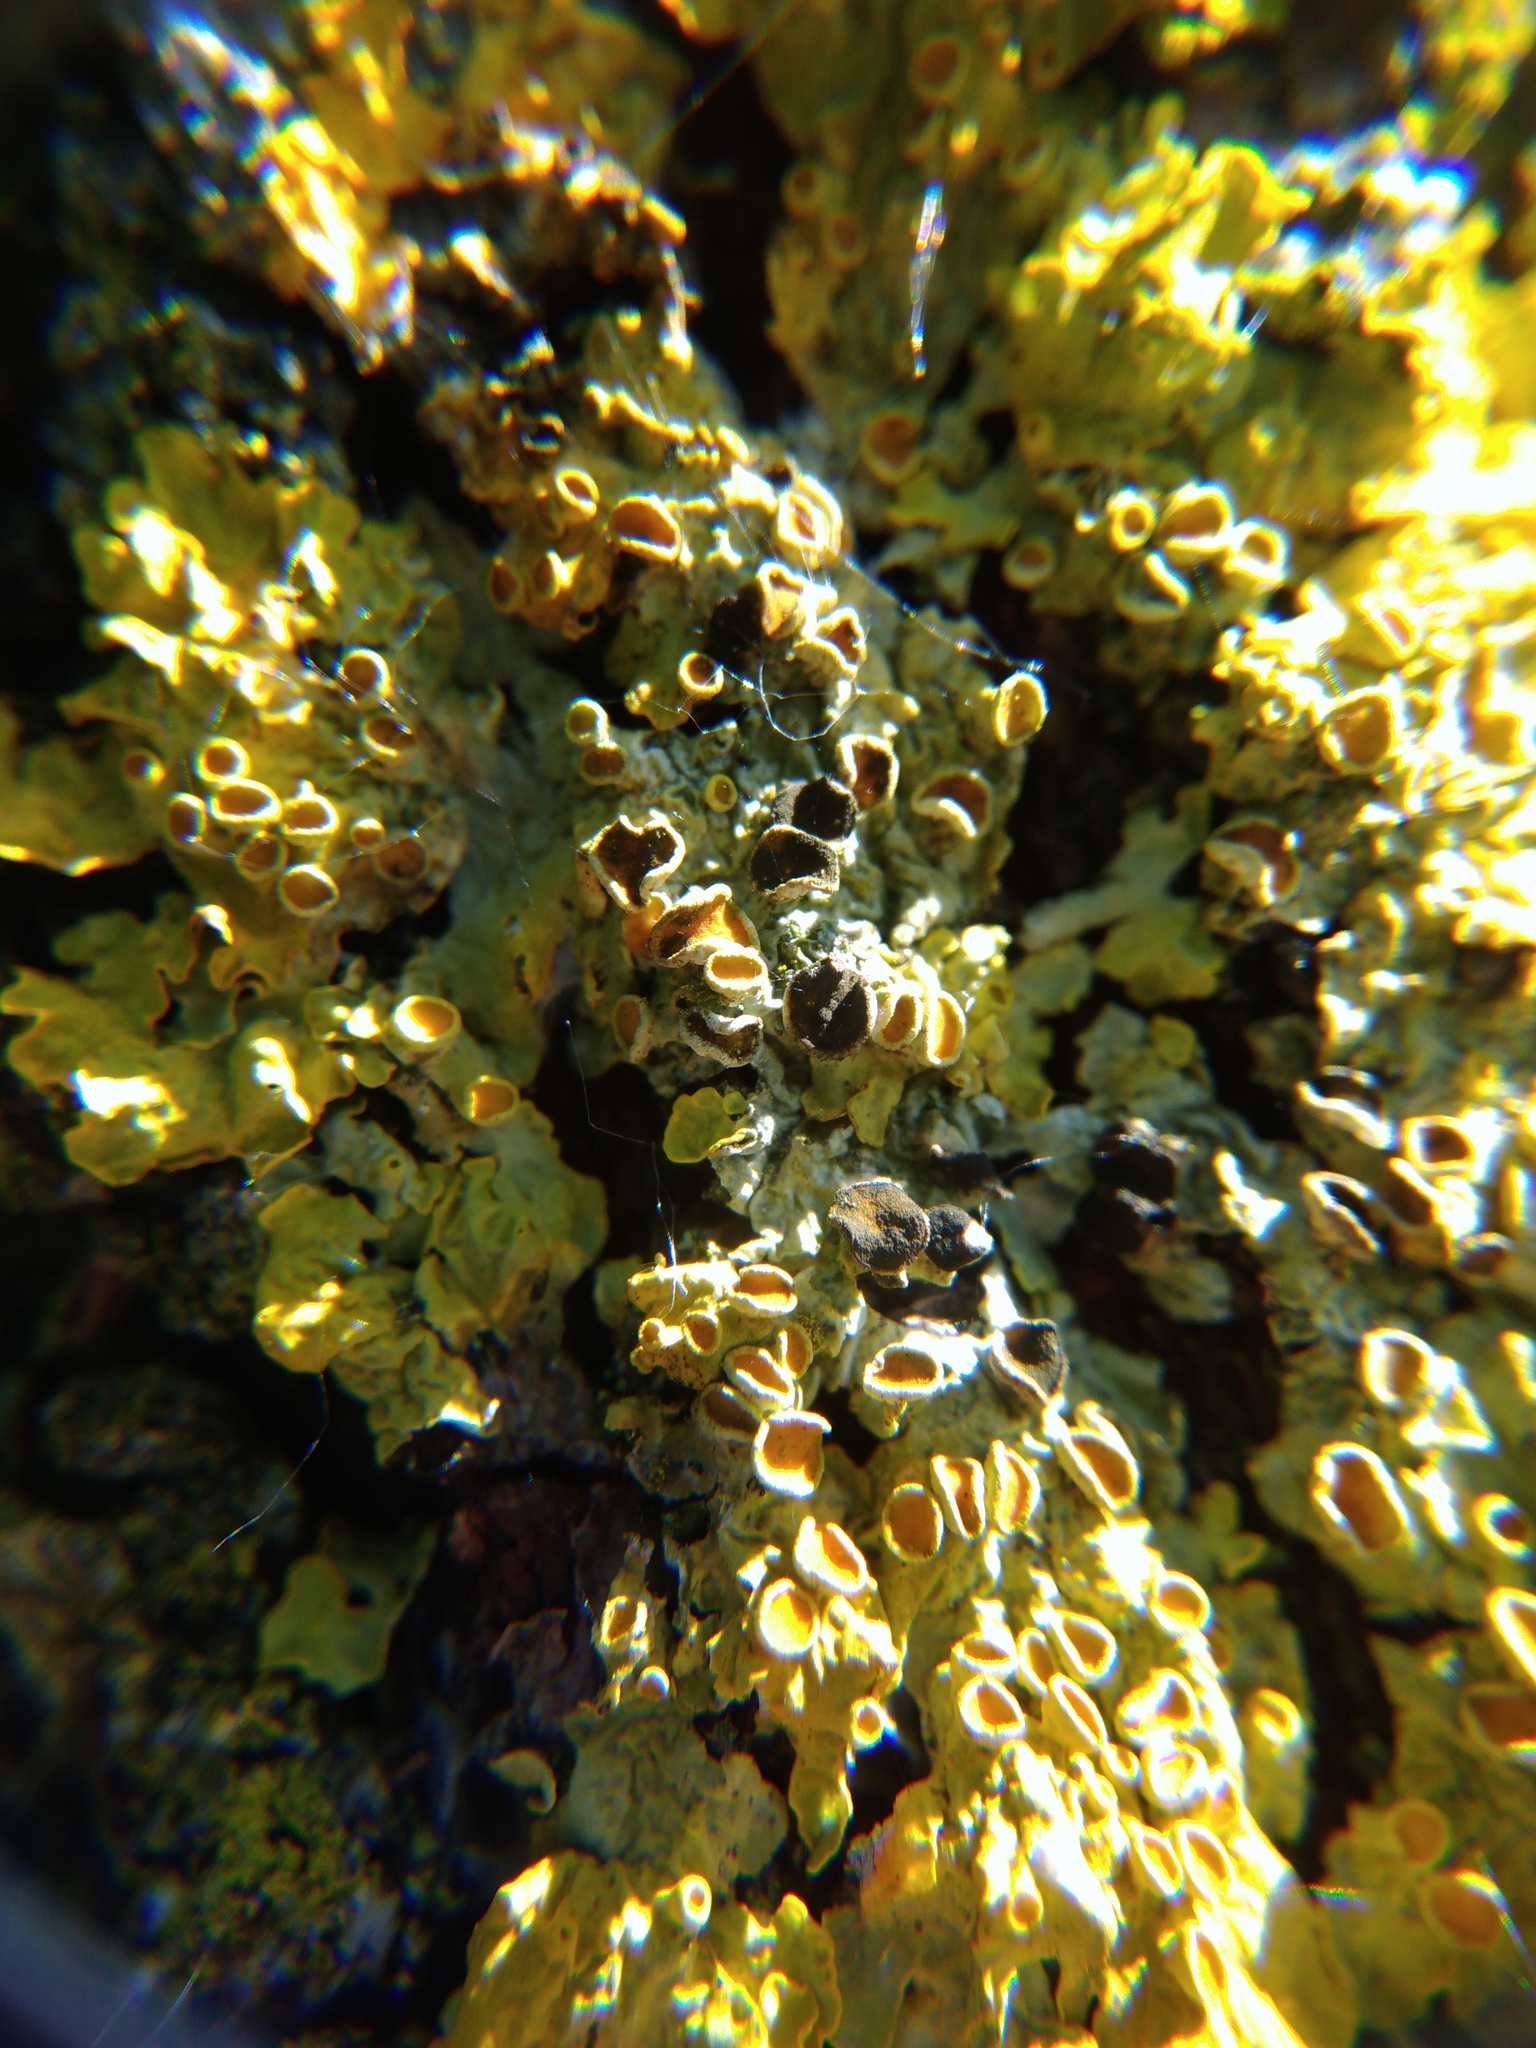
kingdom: Fungi
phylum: Ascomycota
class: Dothideomycetes
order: Mycosphaerellales
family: Teratosphaeriaceae
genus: Xanthoriicola
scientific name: Xanthoriicola physciae
